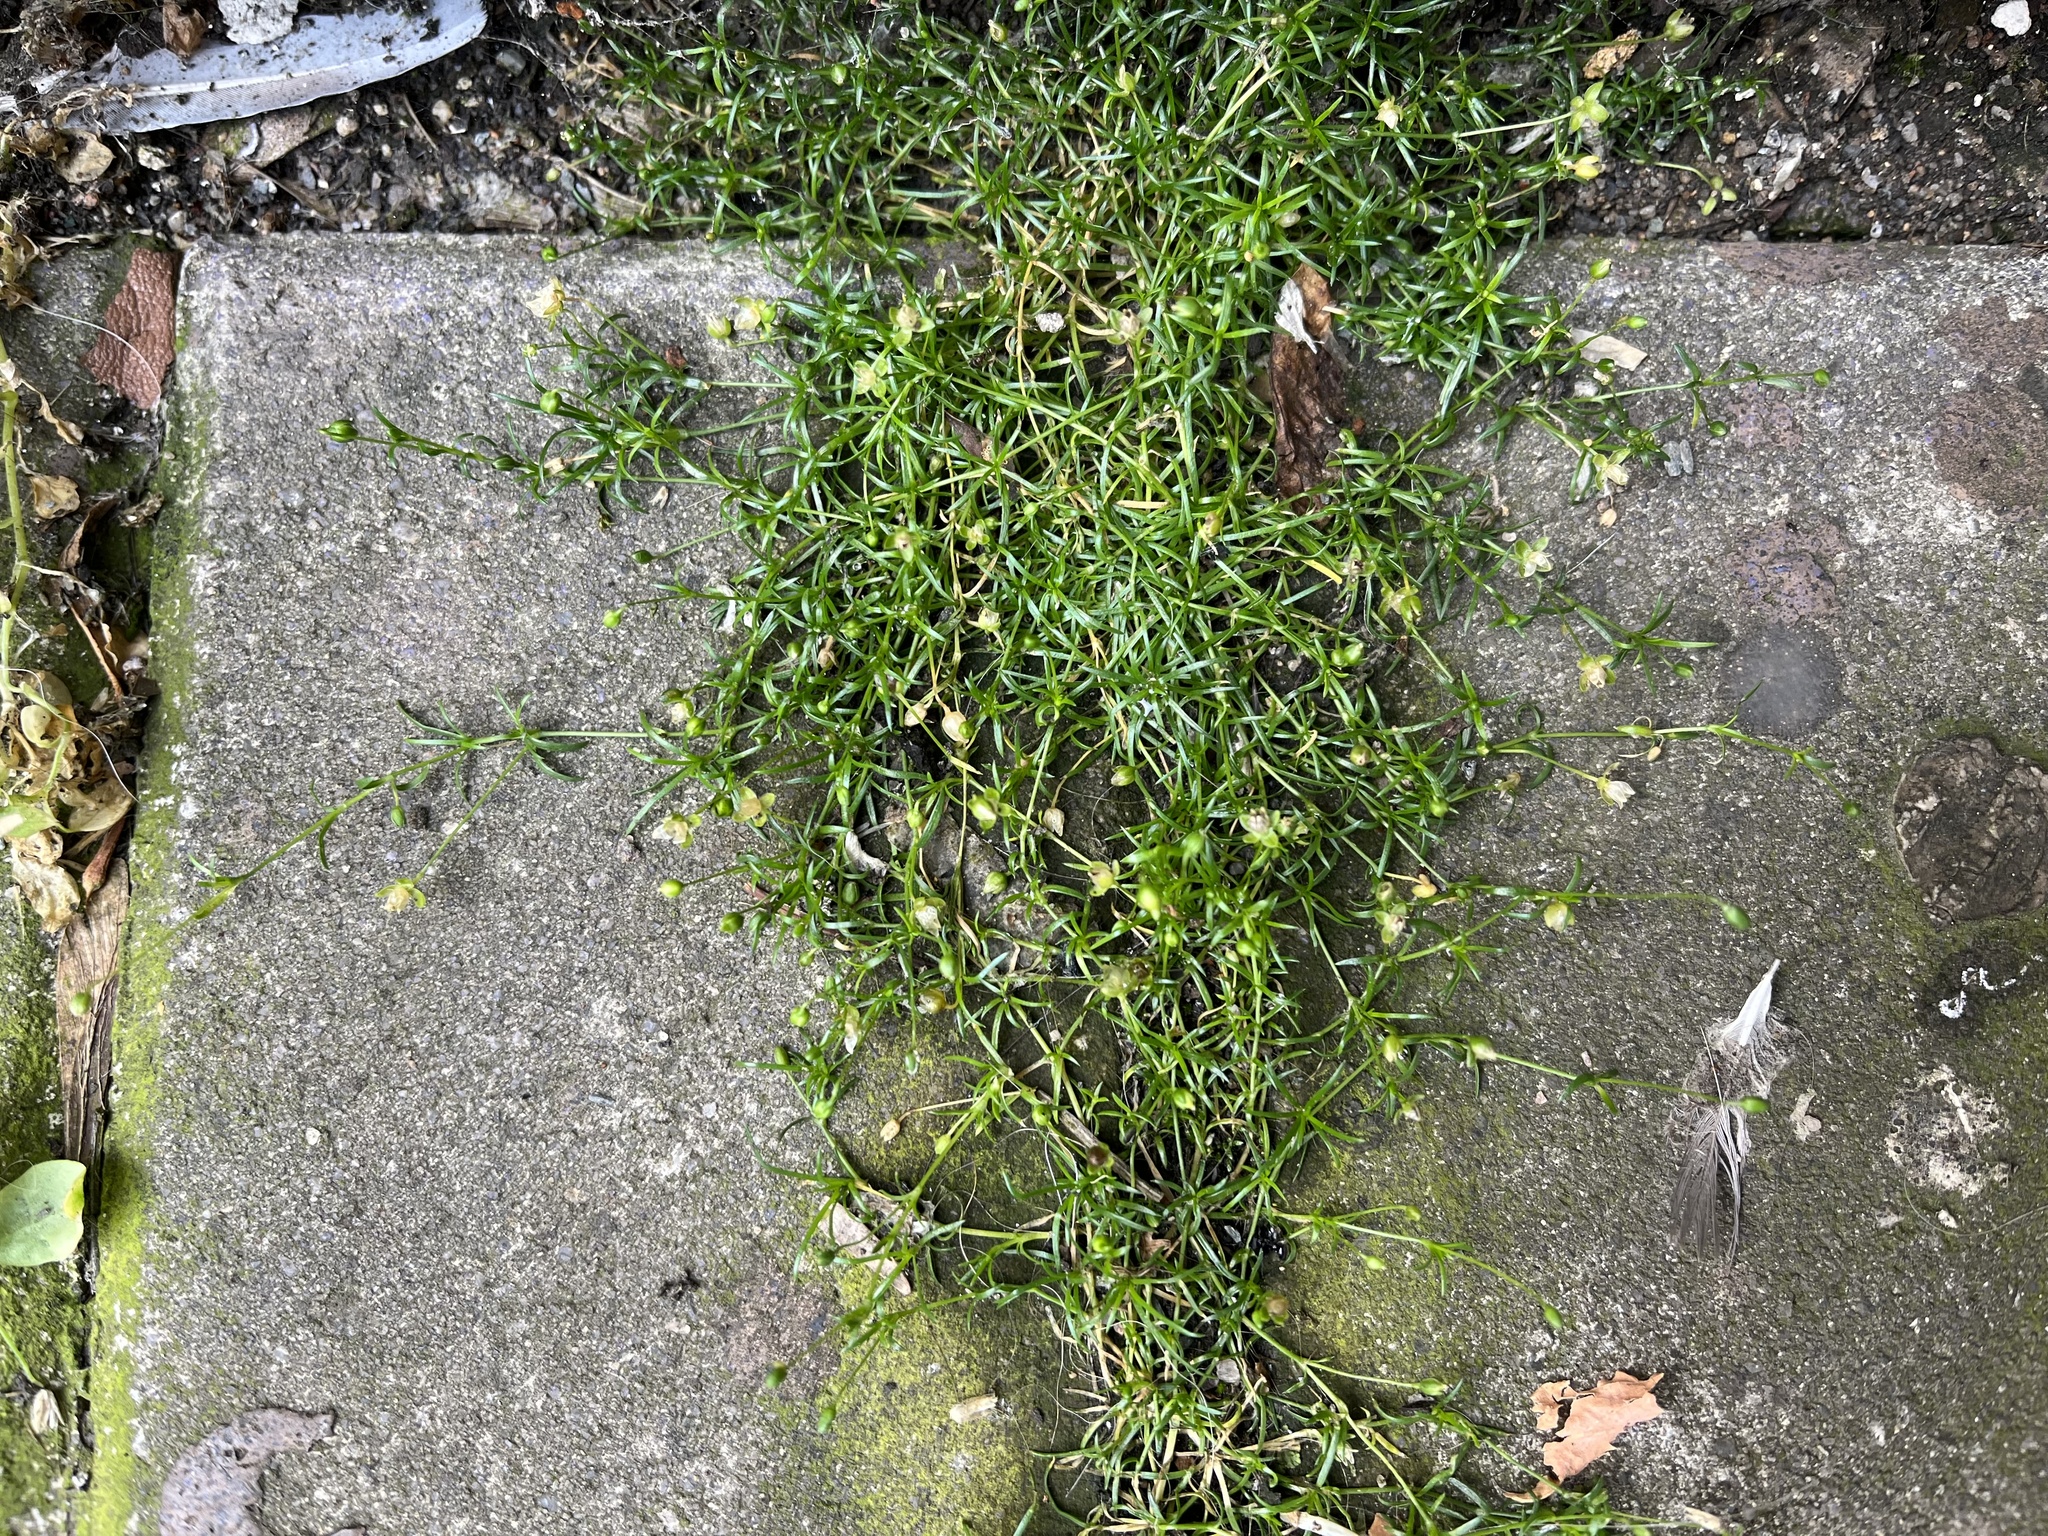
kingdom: Plantae
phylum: Tracheophyta
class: Magnoliopsida
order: Caryophyllales
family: Caryophyllaceae
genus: Sagina
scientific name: Sagina procumbens
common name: Procumbent pearlwort
